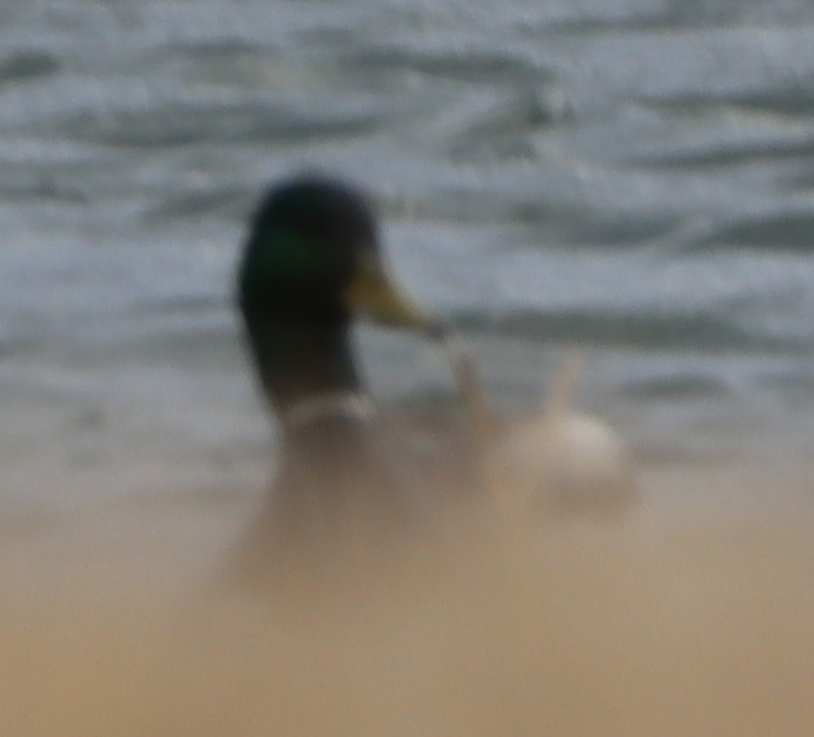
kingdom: Animalia
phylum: Chordata
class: Aves
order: Anseriformes
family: Anatidae
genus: Anas
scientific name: Anas platyrhynchos
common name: Mallard
